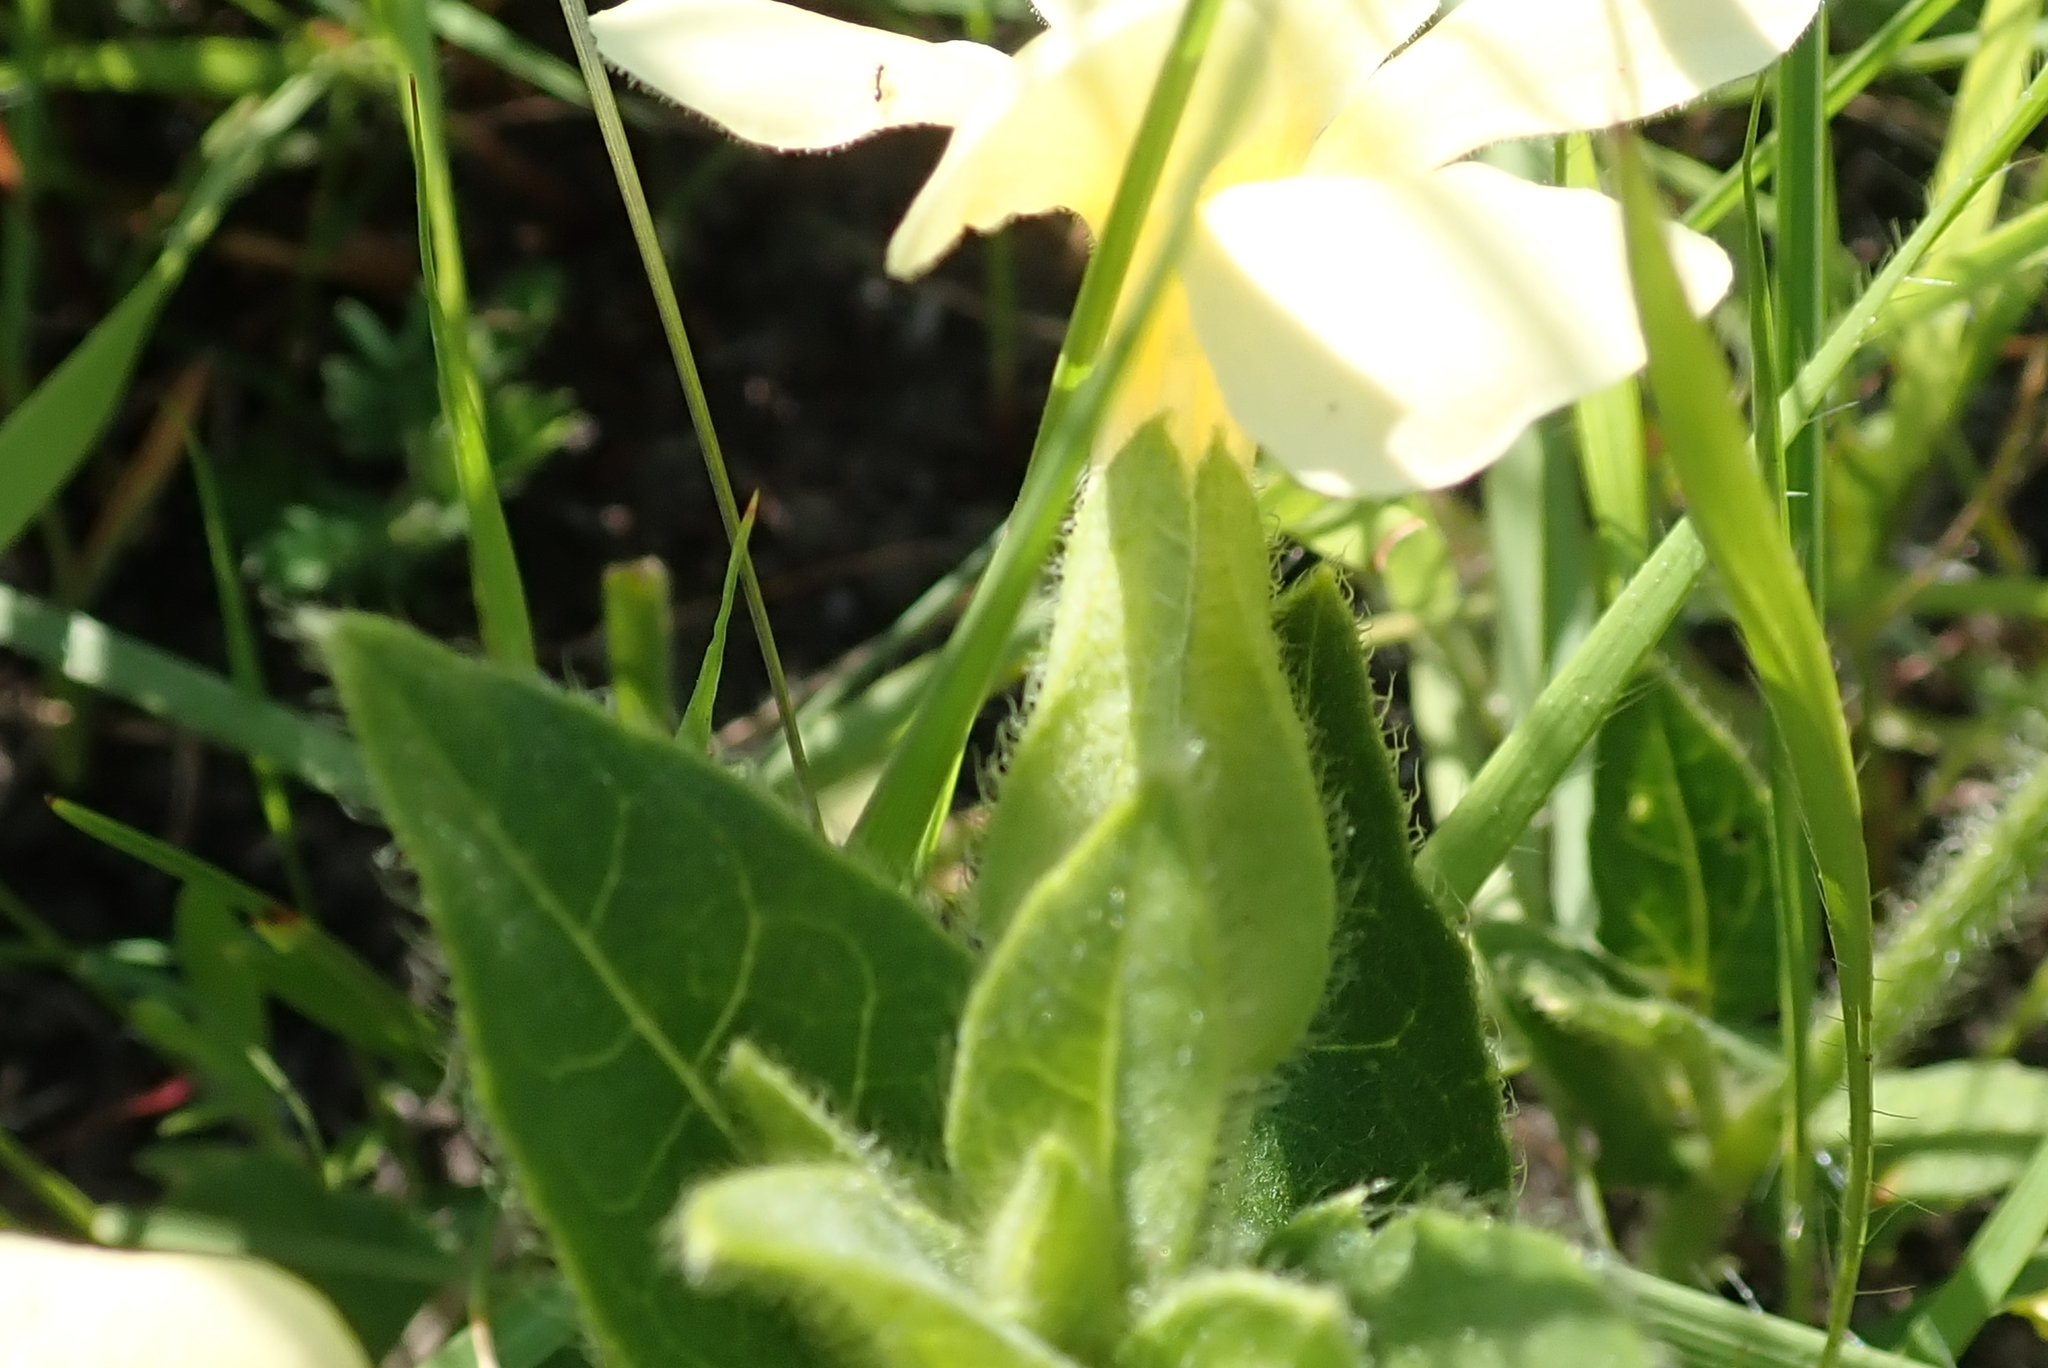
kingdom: Plantae
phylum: Tracheophyta
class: Magnoliopsida
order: Lamiales
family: Acanthaceae
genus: Thunbergia
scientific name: Thunbergia atriplicifolia
